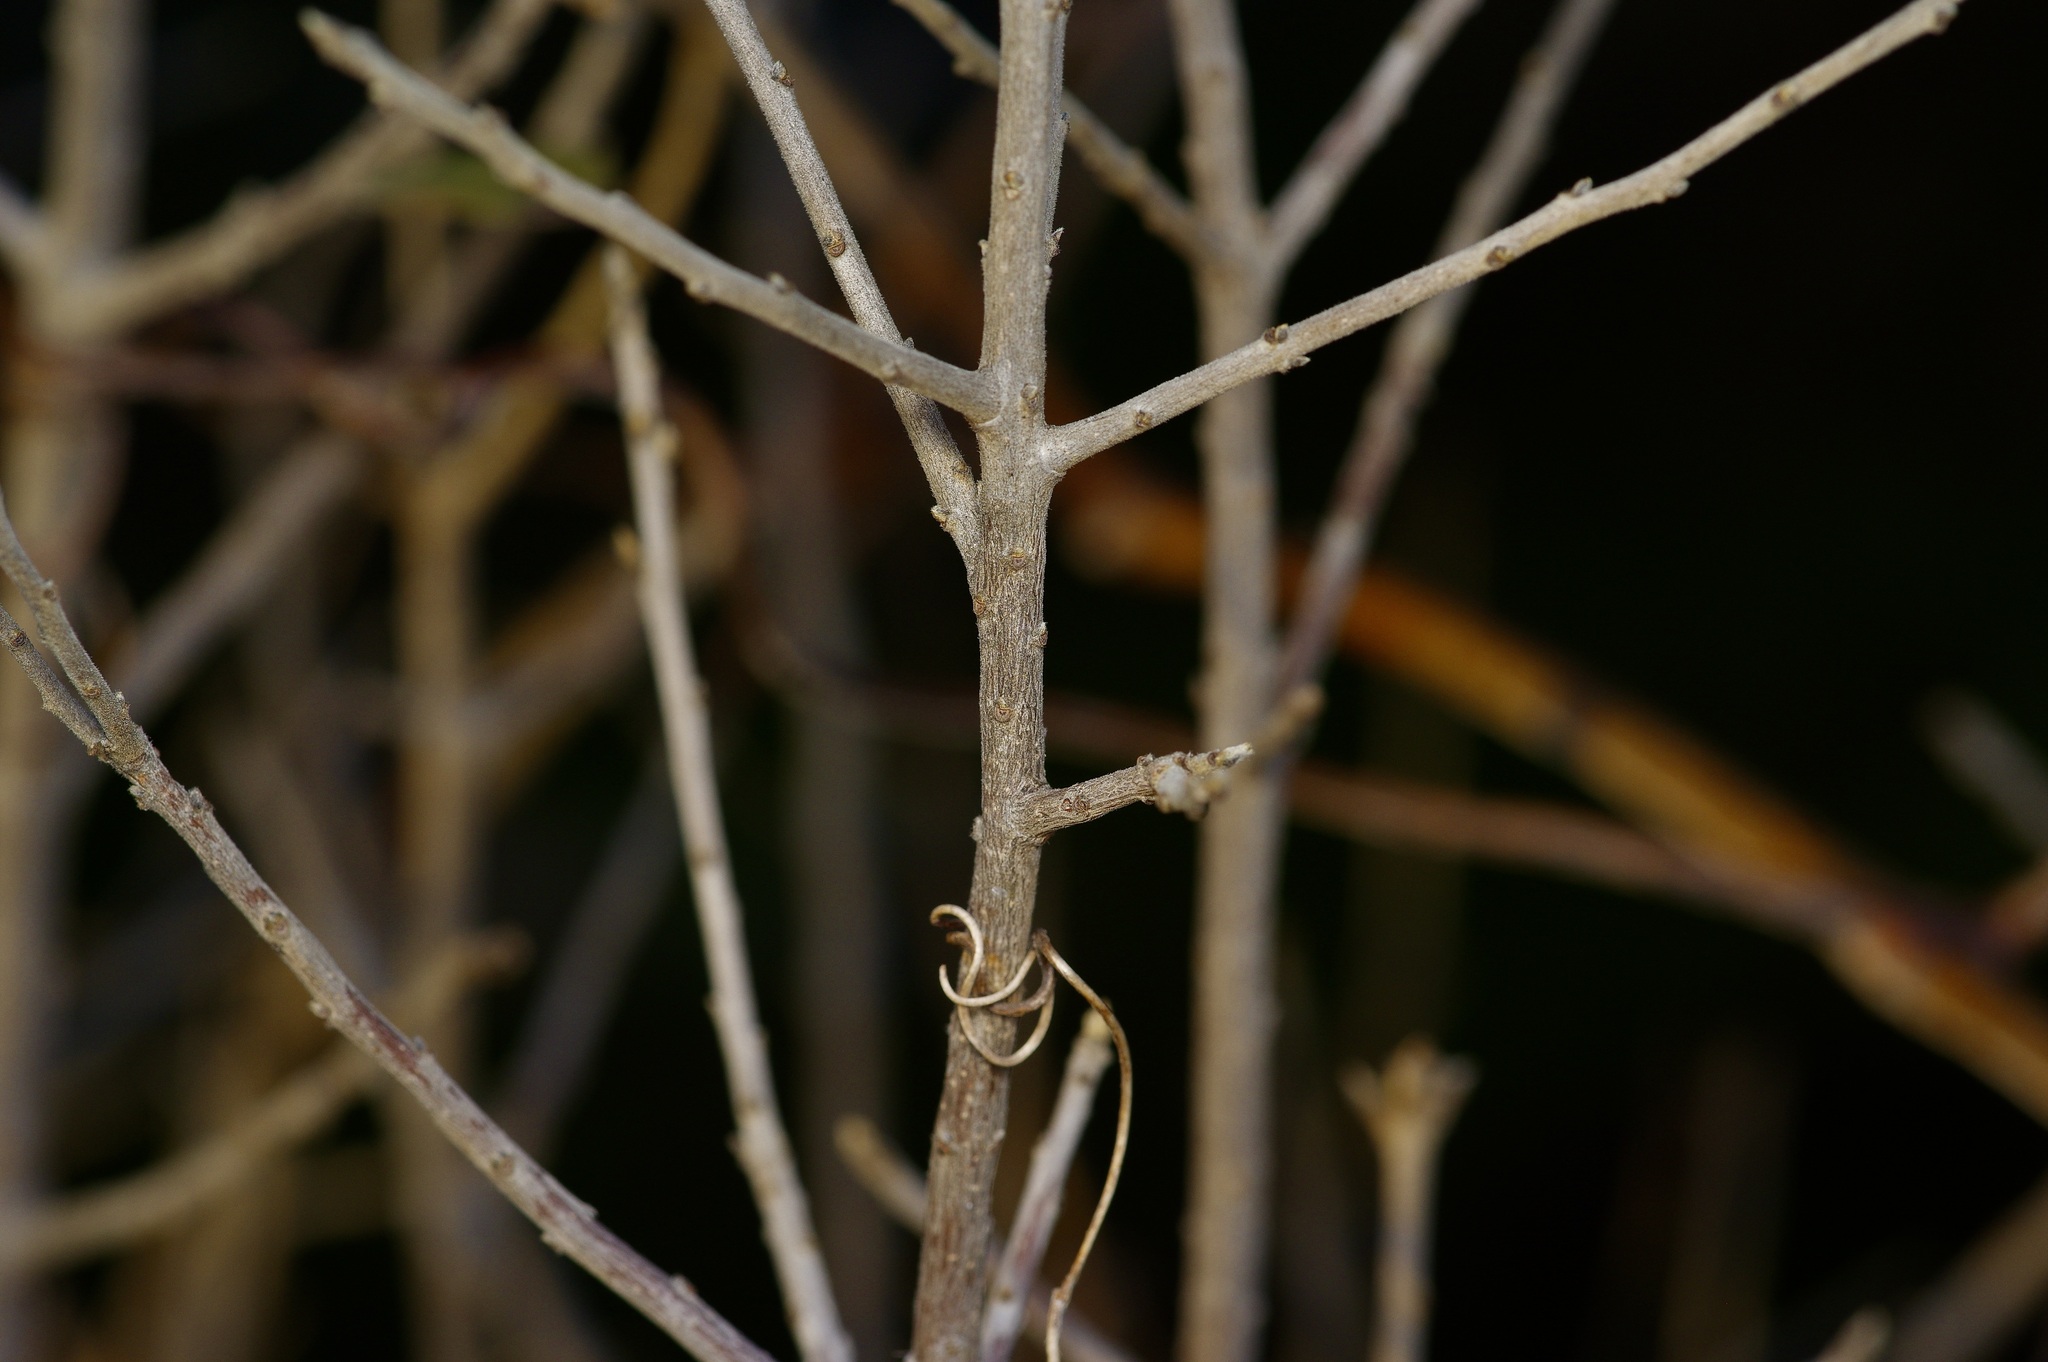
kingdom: Plantae
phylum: Tracheophyta
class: Magnoliopsida
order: Ericales
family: Ebenaceae
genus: Diospyros
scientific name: Diospyros texana
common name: Texas persimmon
